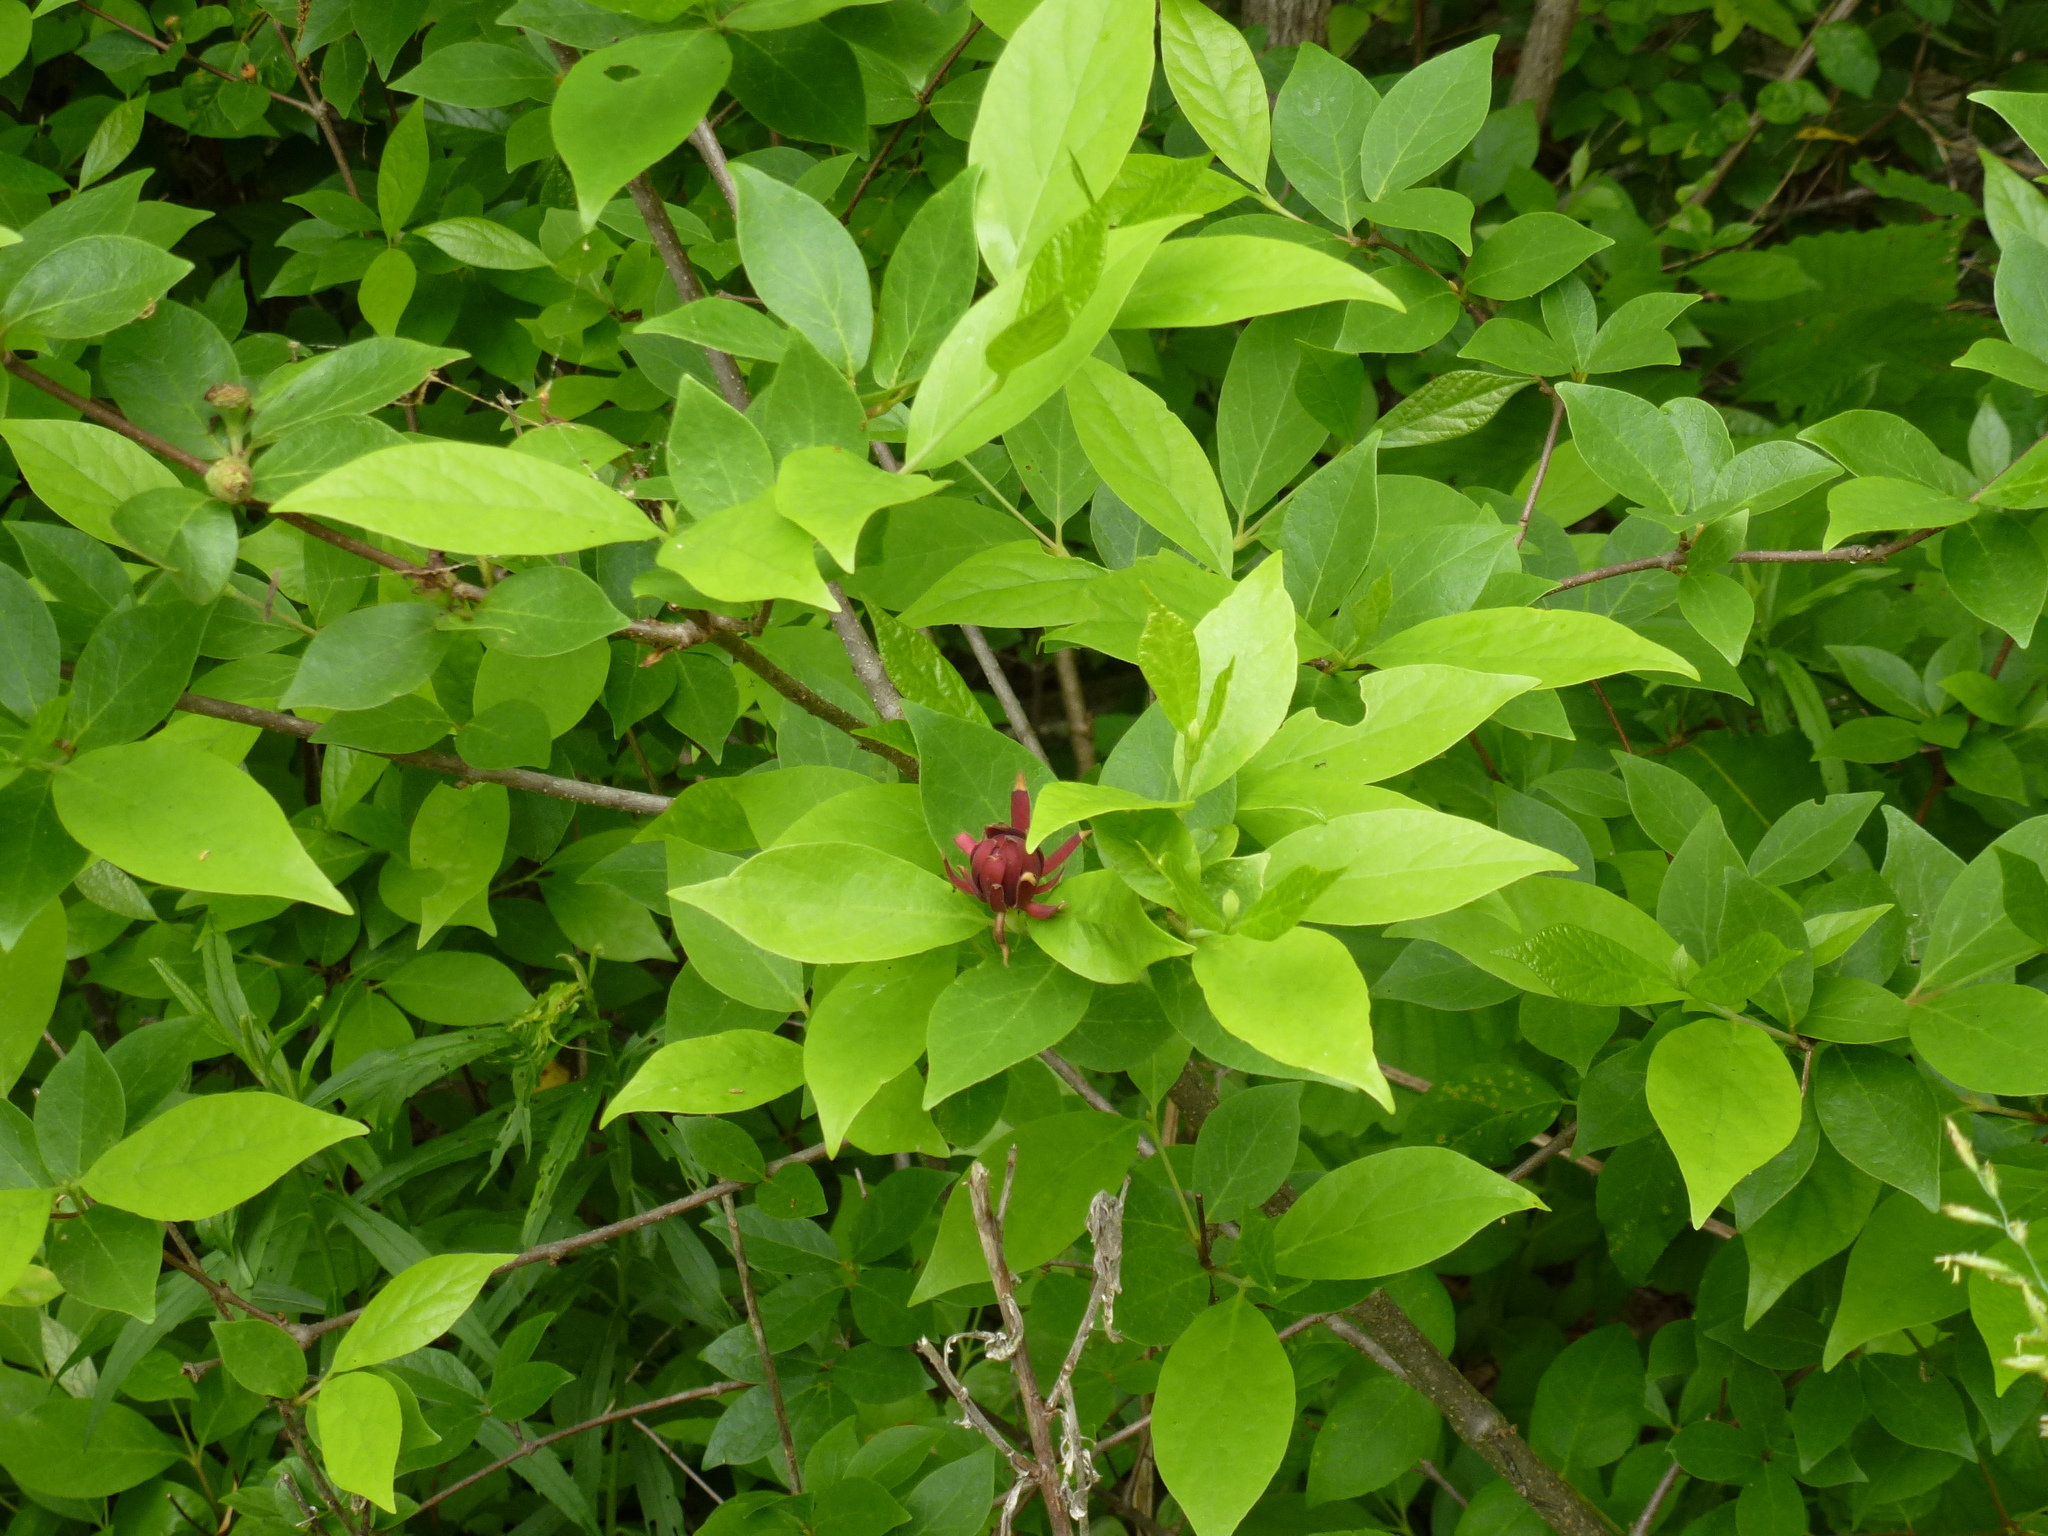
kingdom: Plantae
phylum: Tracheophyta
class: Magnoliopsida
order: Laurales
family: Calycanthaceae
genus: Calycanthus
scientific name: Calycanthus floridus
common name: Carolina-allspice
